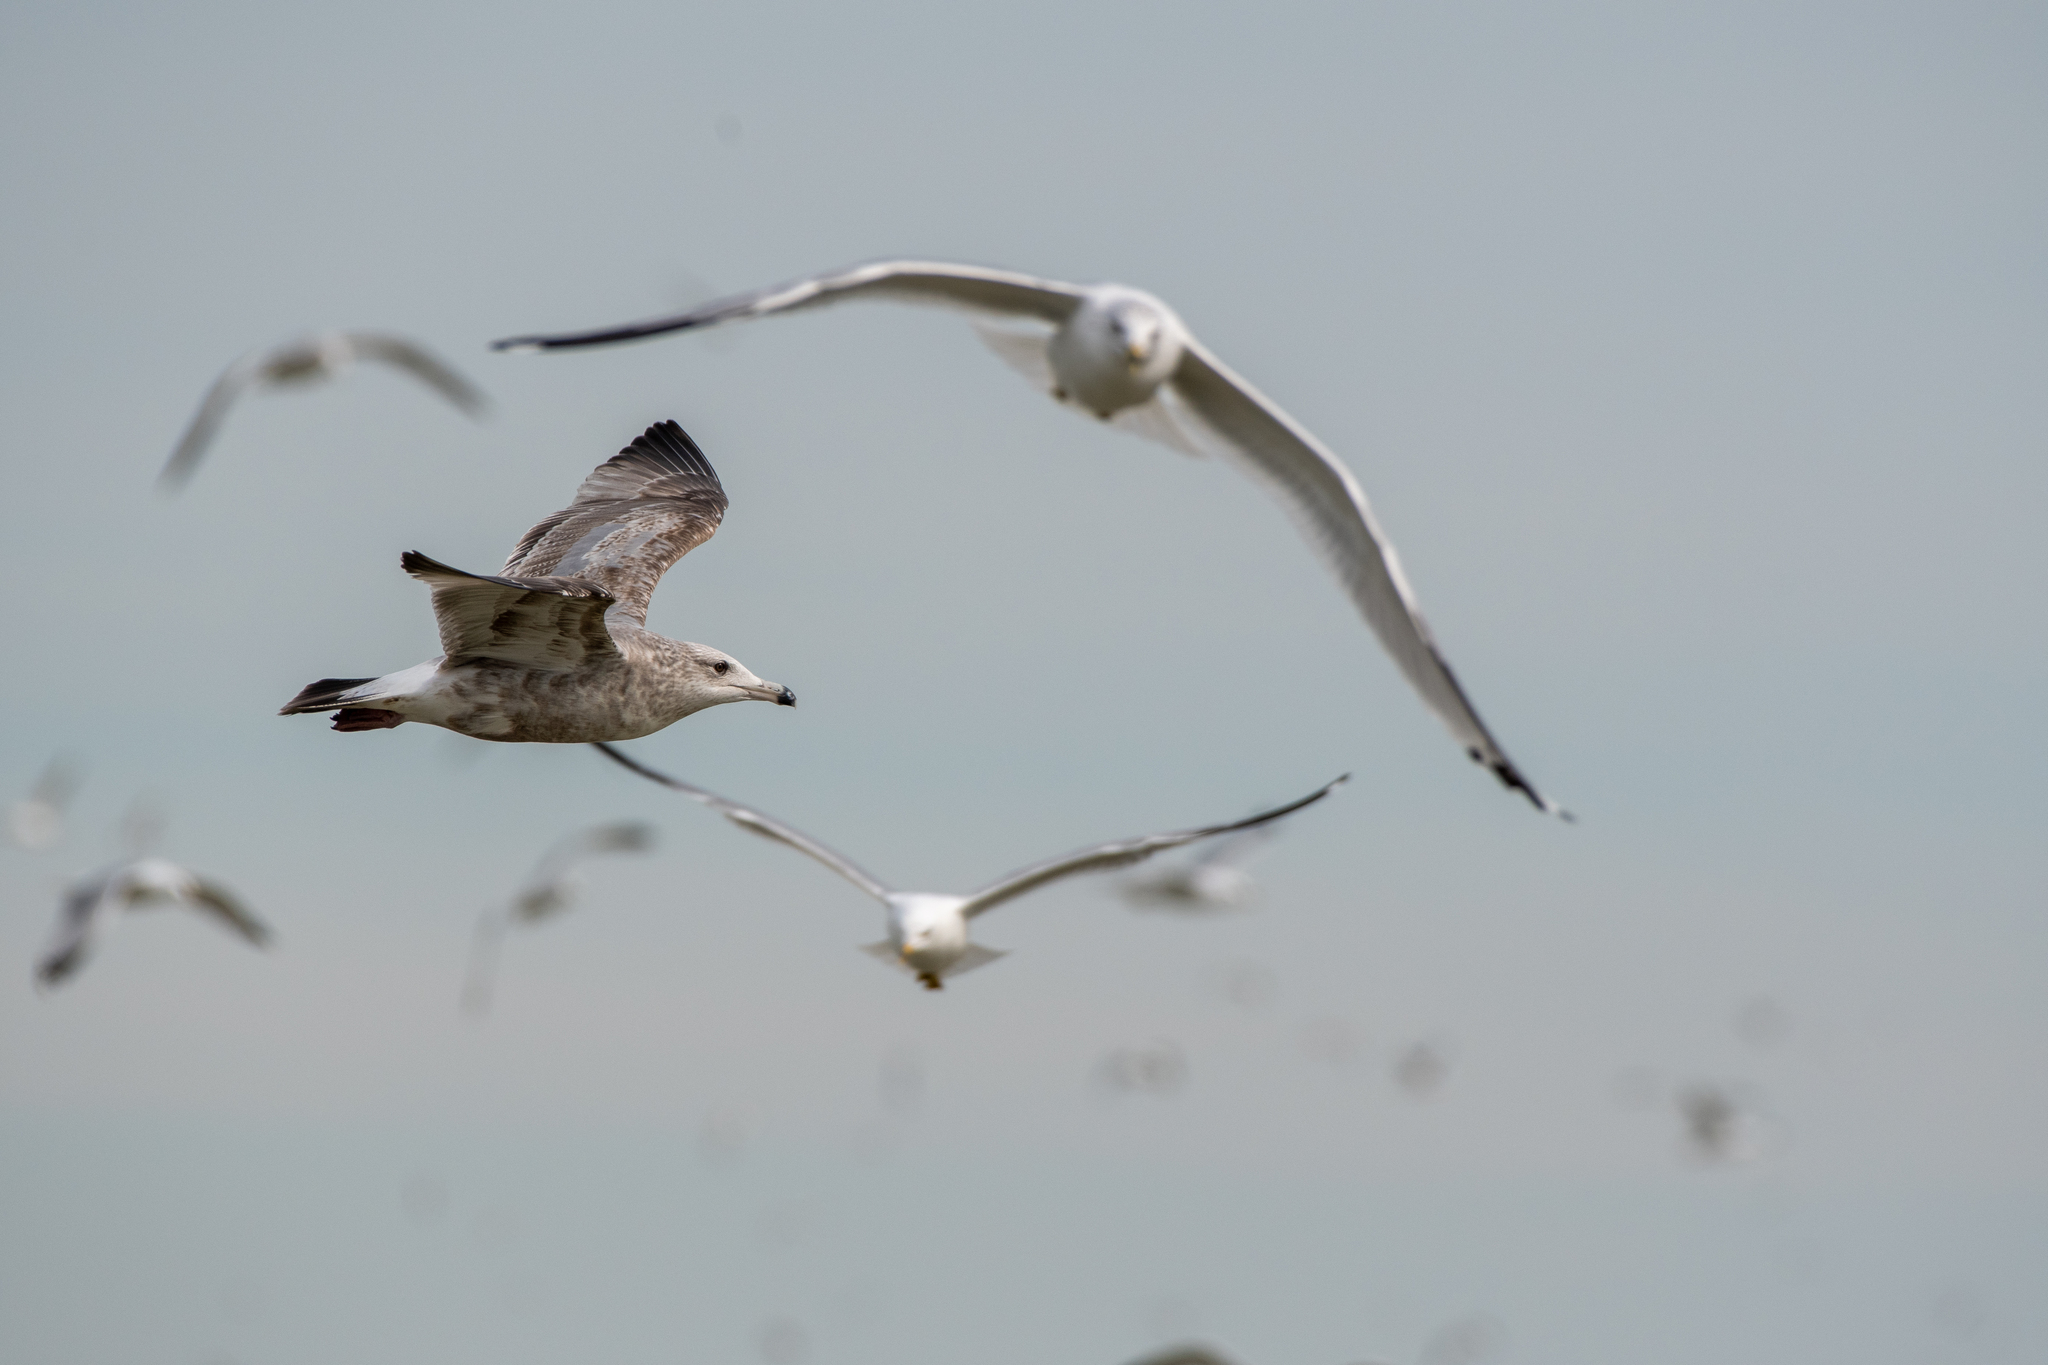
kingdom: Animalia
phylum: Chordata
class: Aves
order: Charadriiformes
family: Laridae
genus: Larus
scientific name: Larus argentatus
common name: Herring gull
